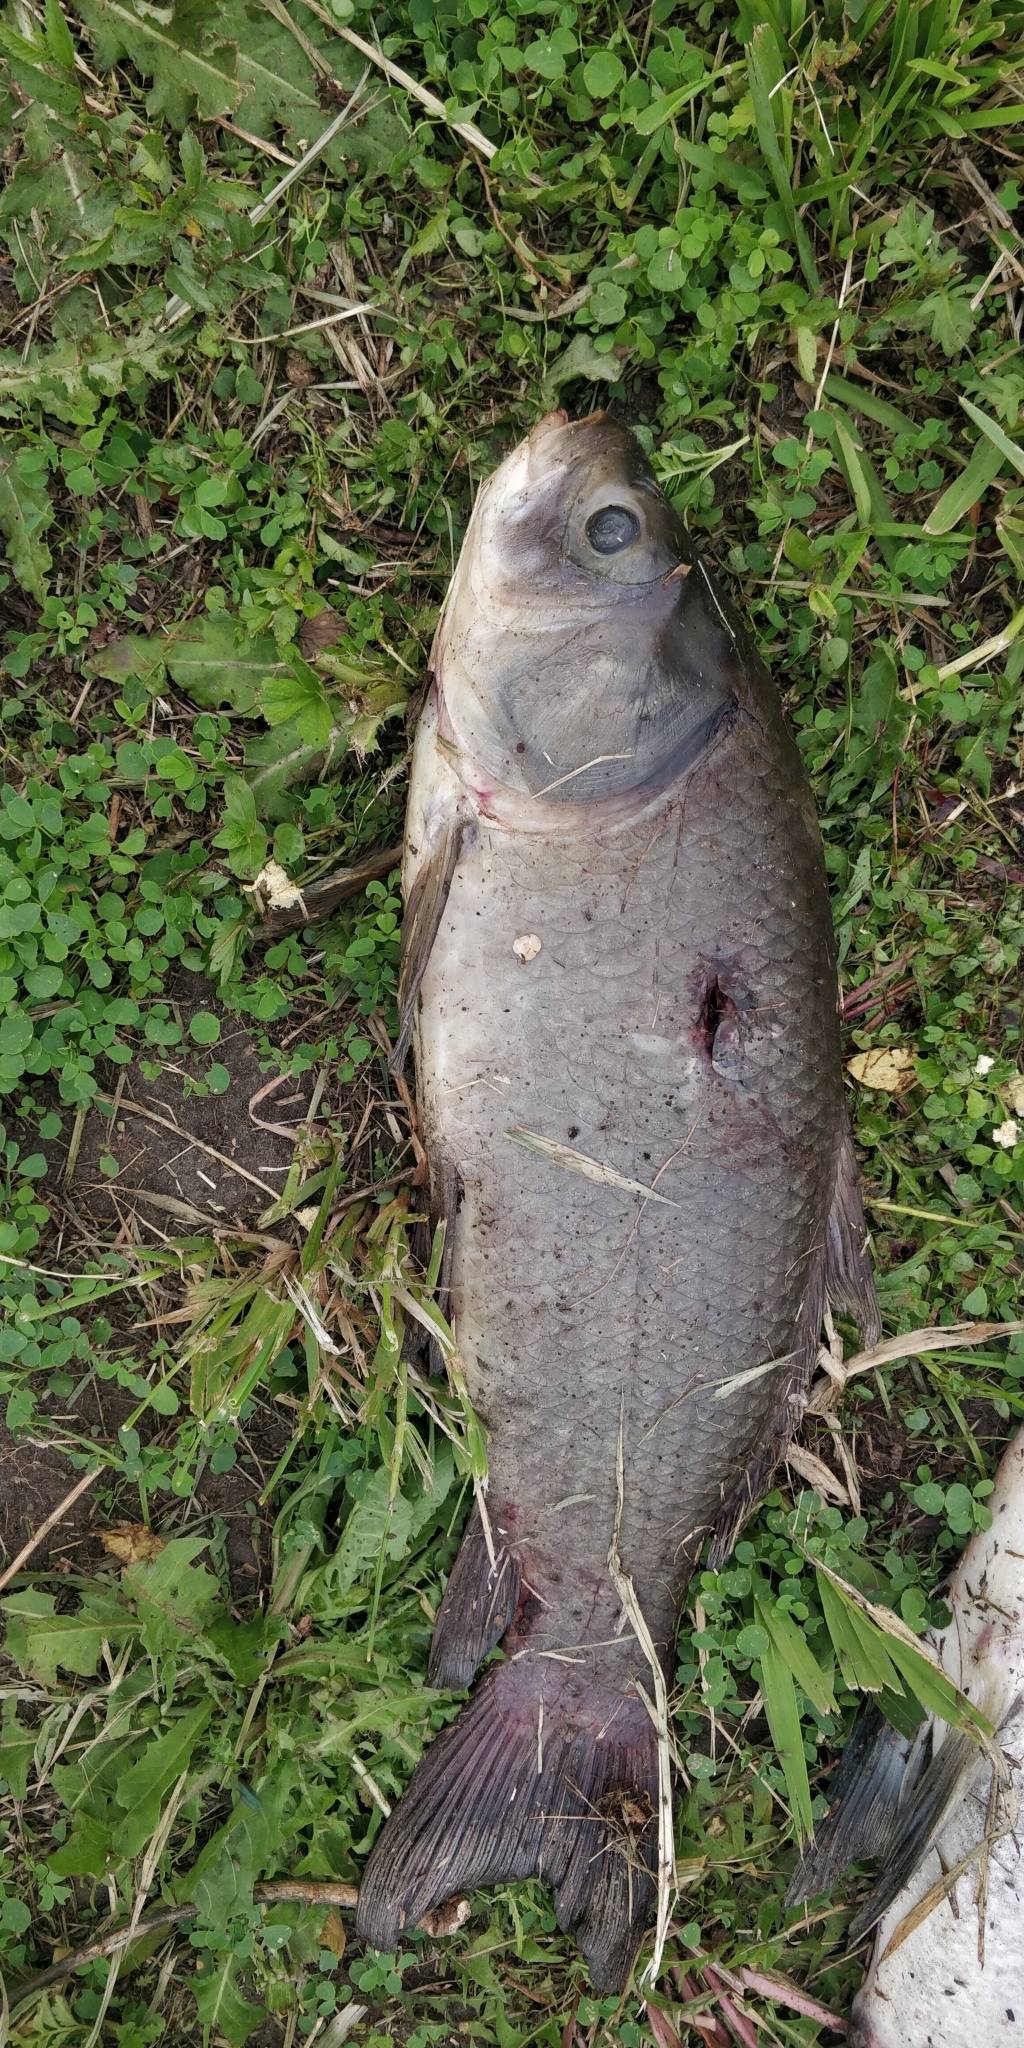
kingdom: Animalia
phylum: Chordata
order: Cypriniformes
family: Catostomidae
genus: Ictiobus
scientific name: Ictiobus cyprinellus
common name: Bigmouth buffalo
